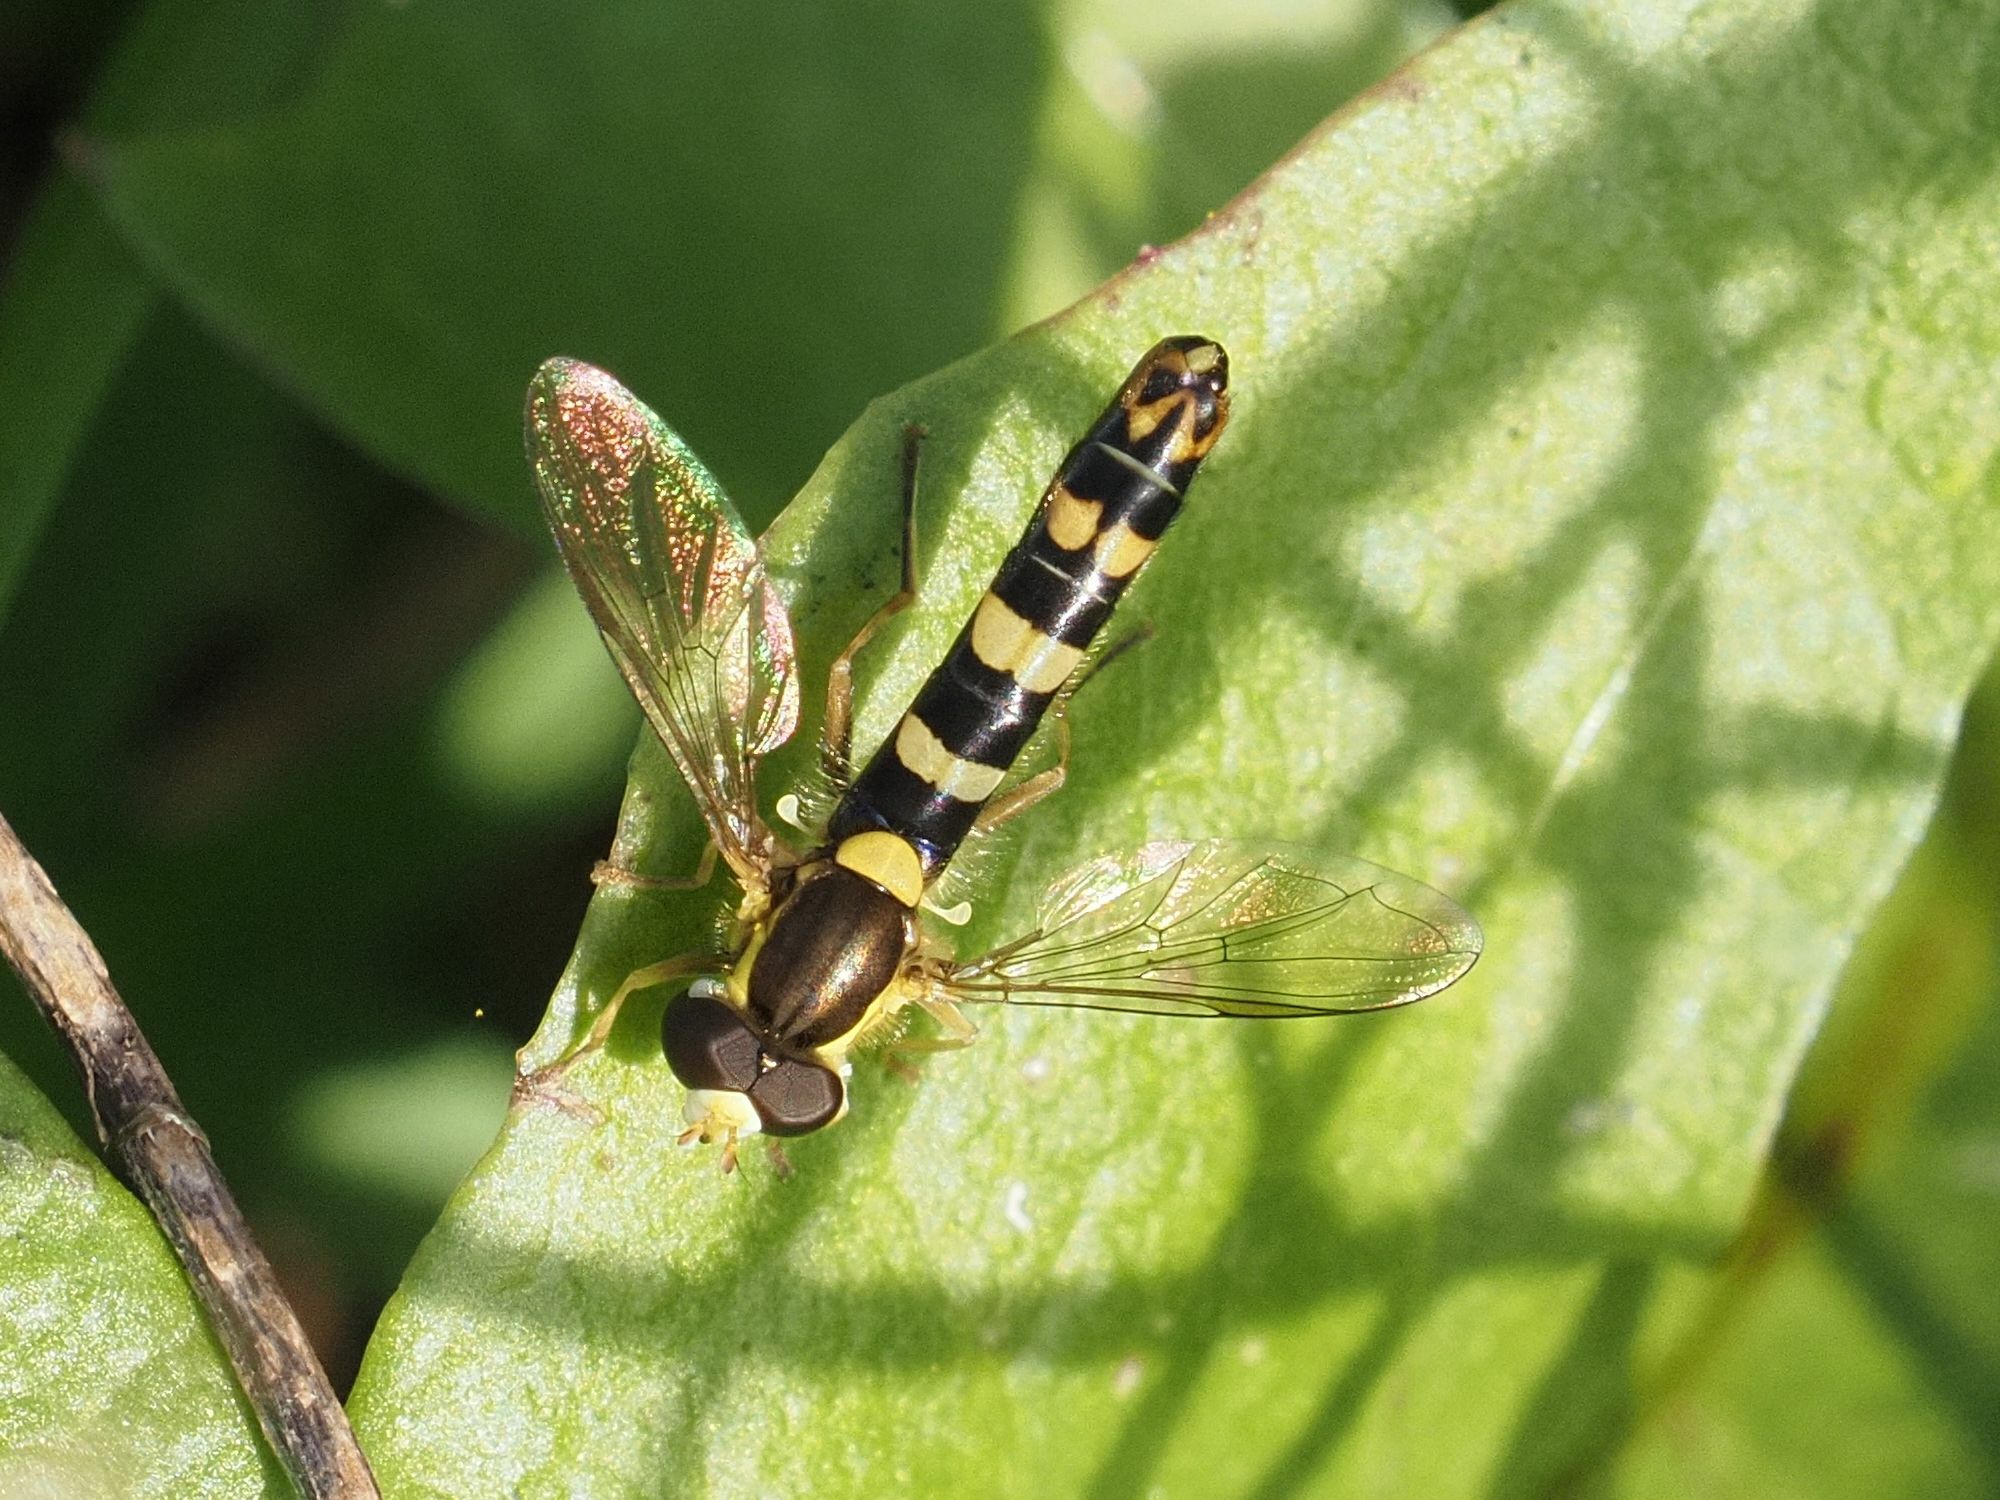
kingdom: Animalia
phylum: Arthropoda
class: Insecta
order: Diptera
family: Syrphidae
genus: Sphaerophoria
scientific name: Sphaerophoria scripta
